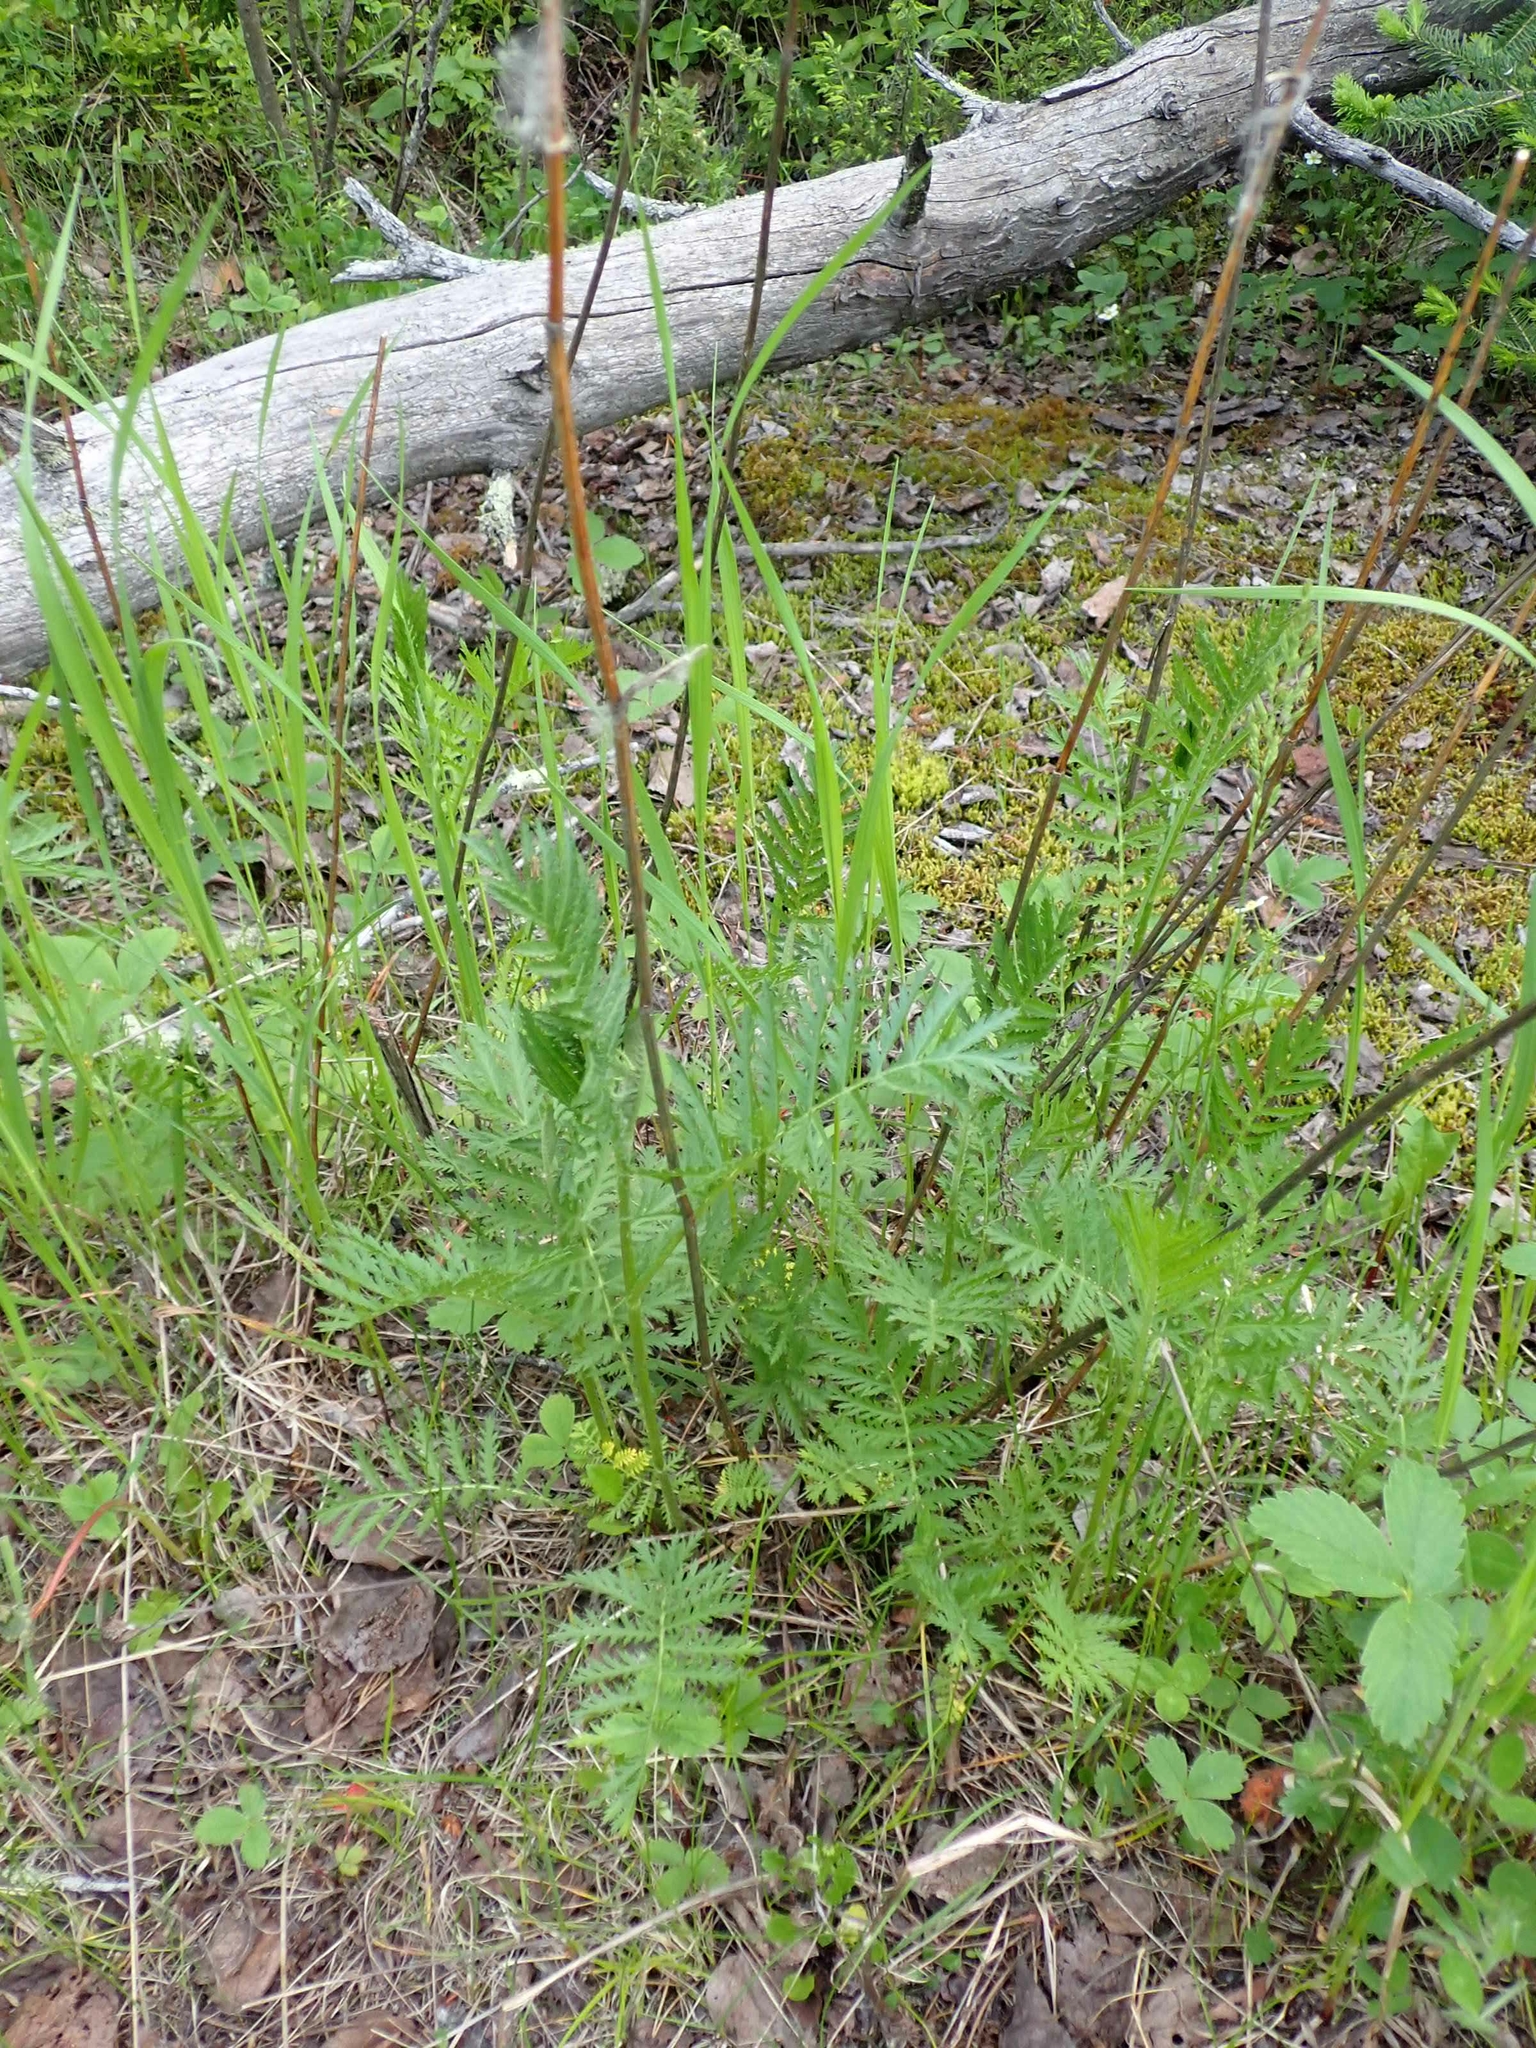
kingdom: Plantae
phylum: Tracheophyta
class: Magnoliopsida
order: Asterales
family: Asteraceae
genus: Tanacetum
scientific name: Tanacetum vulgare
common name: Common tansy
